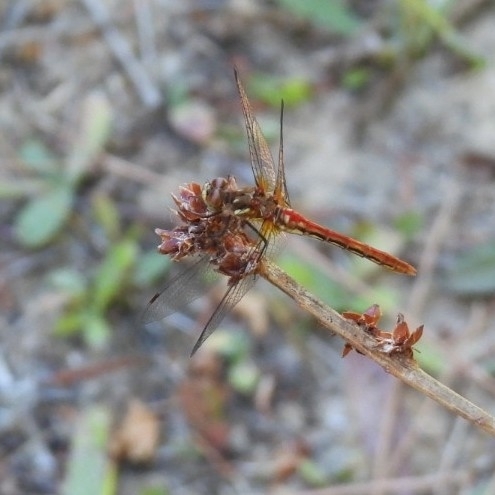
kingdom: Animalia
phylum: Arthropoda
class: Insecta
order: Odonata
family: Libellulidae
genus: Sympetrum
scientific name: Sympetrum pallipes
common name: Striped meadowhawk
